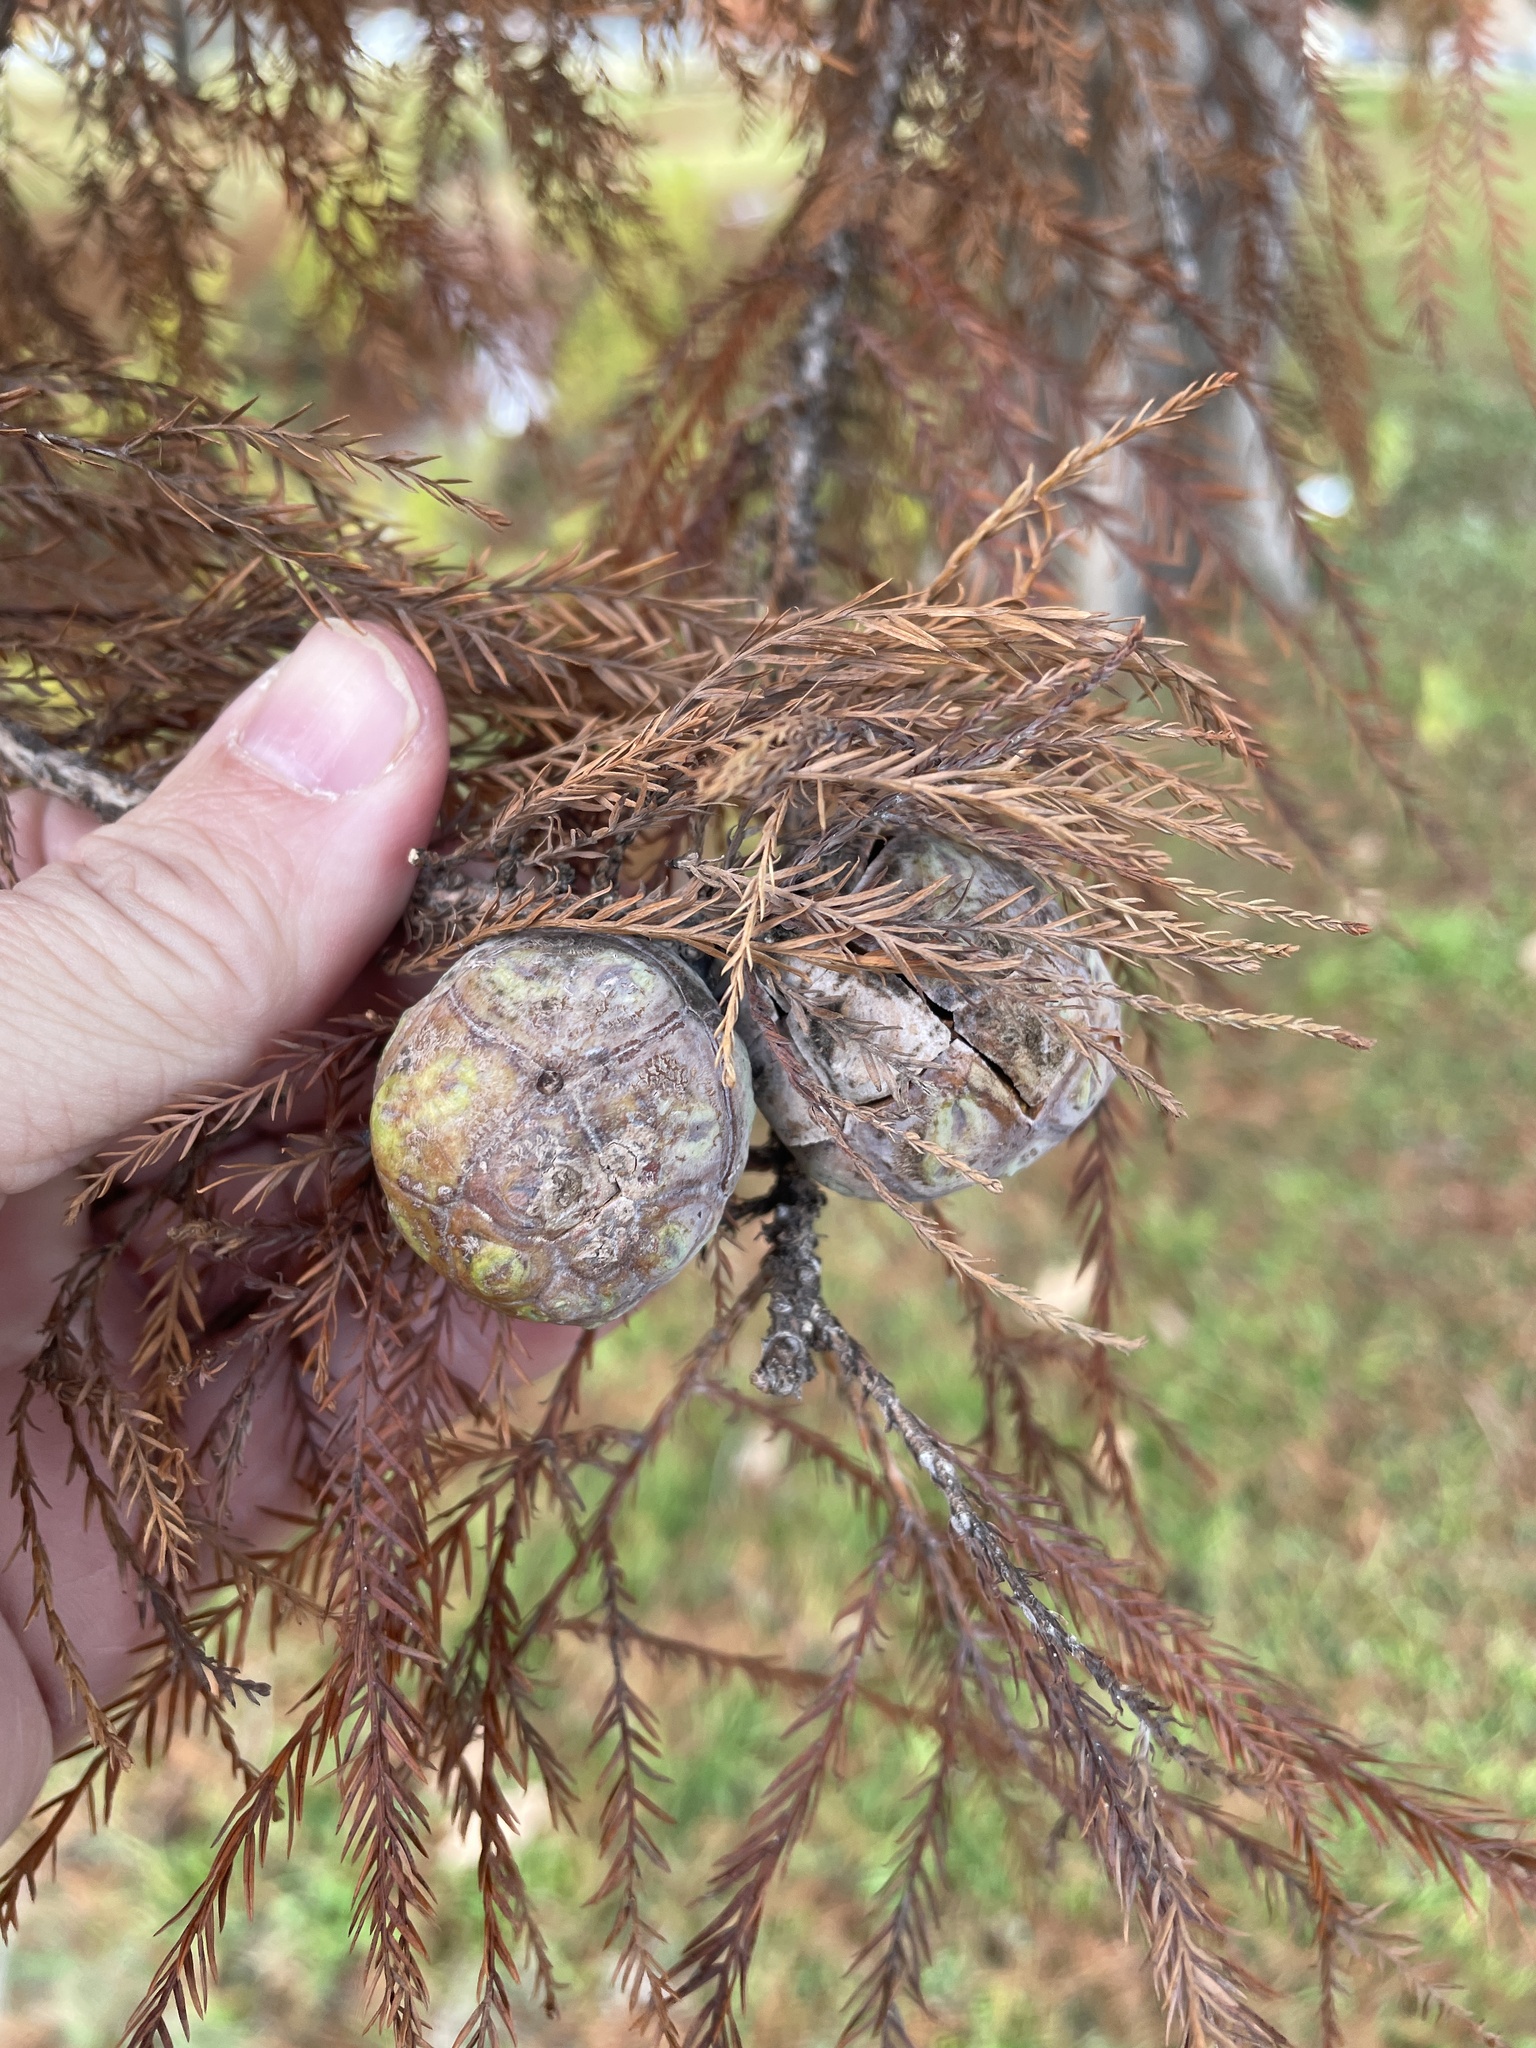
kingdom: Plantae
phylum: Tracheophyta
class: Pinopsida
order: Pinales
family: Cupressaceae
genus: Taxodium
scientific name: Taxodium distichum
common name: Bald cypress
